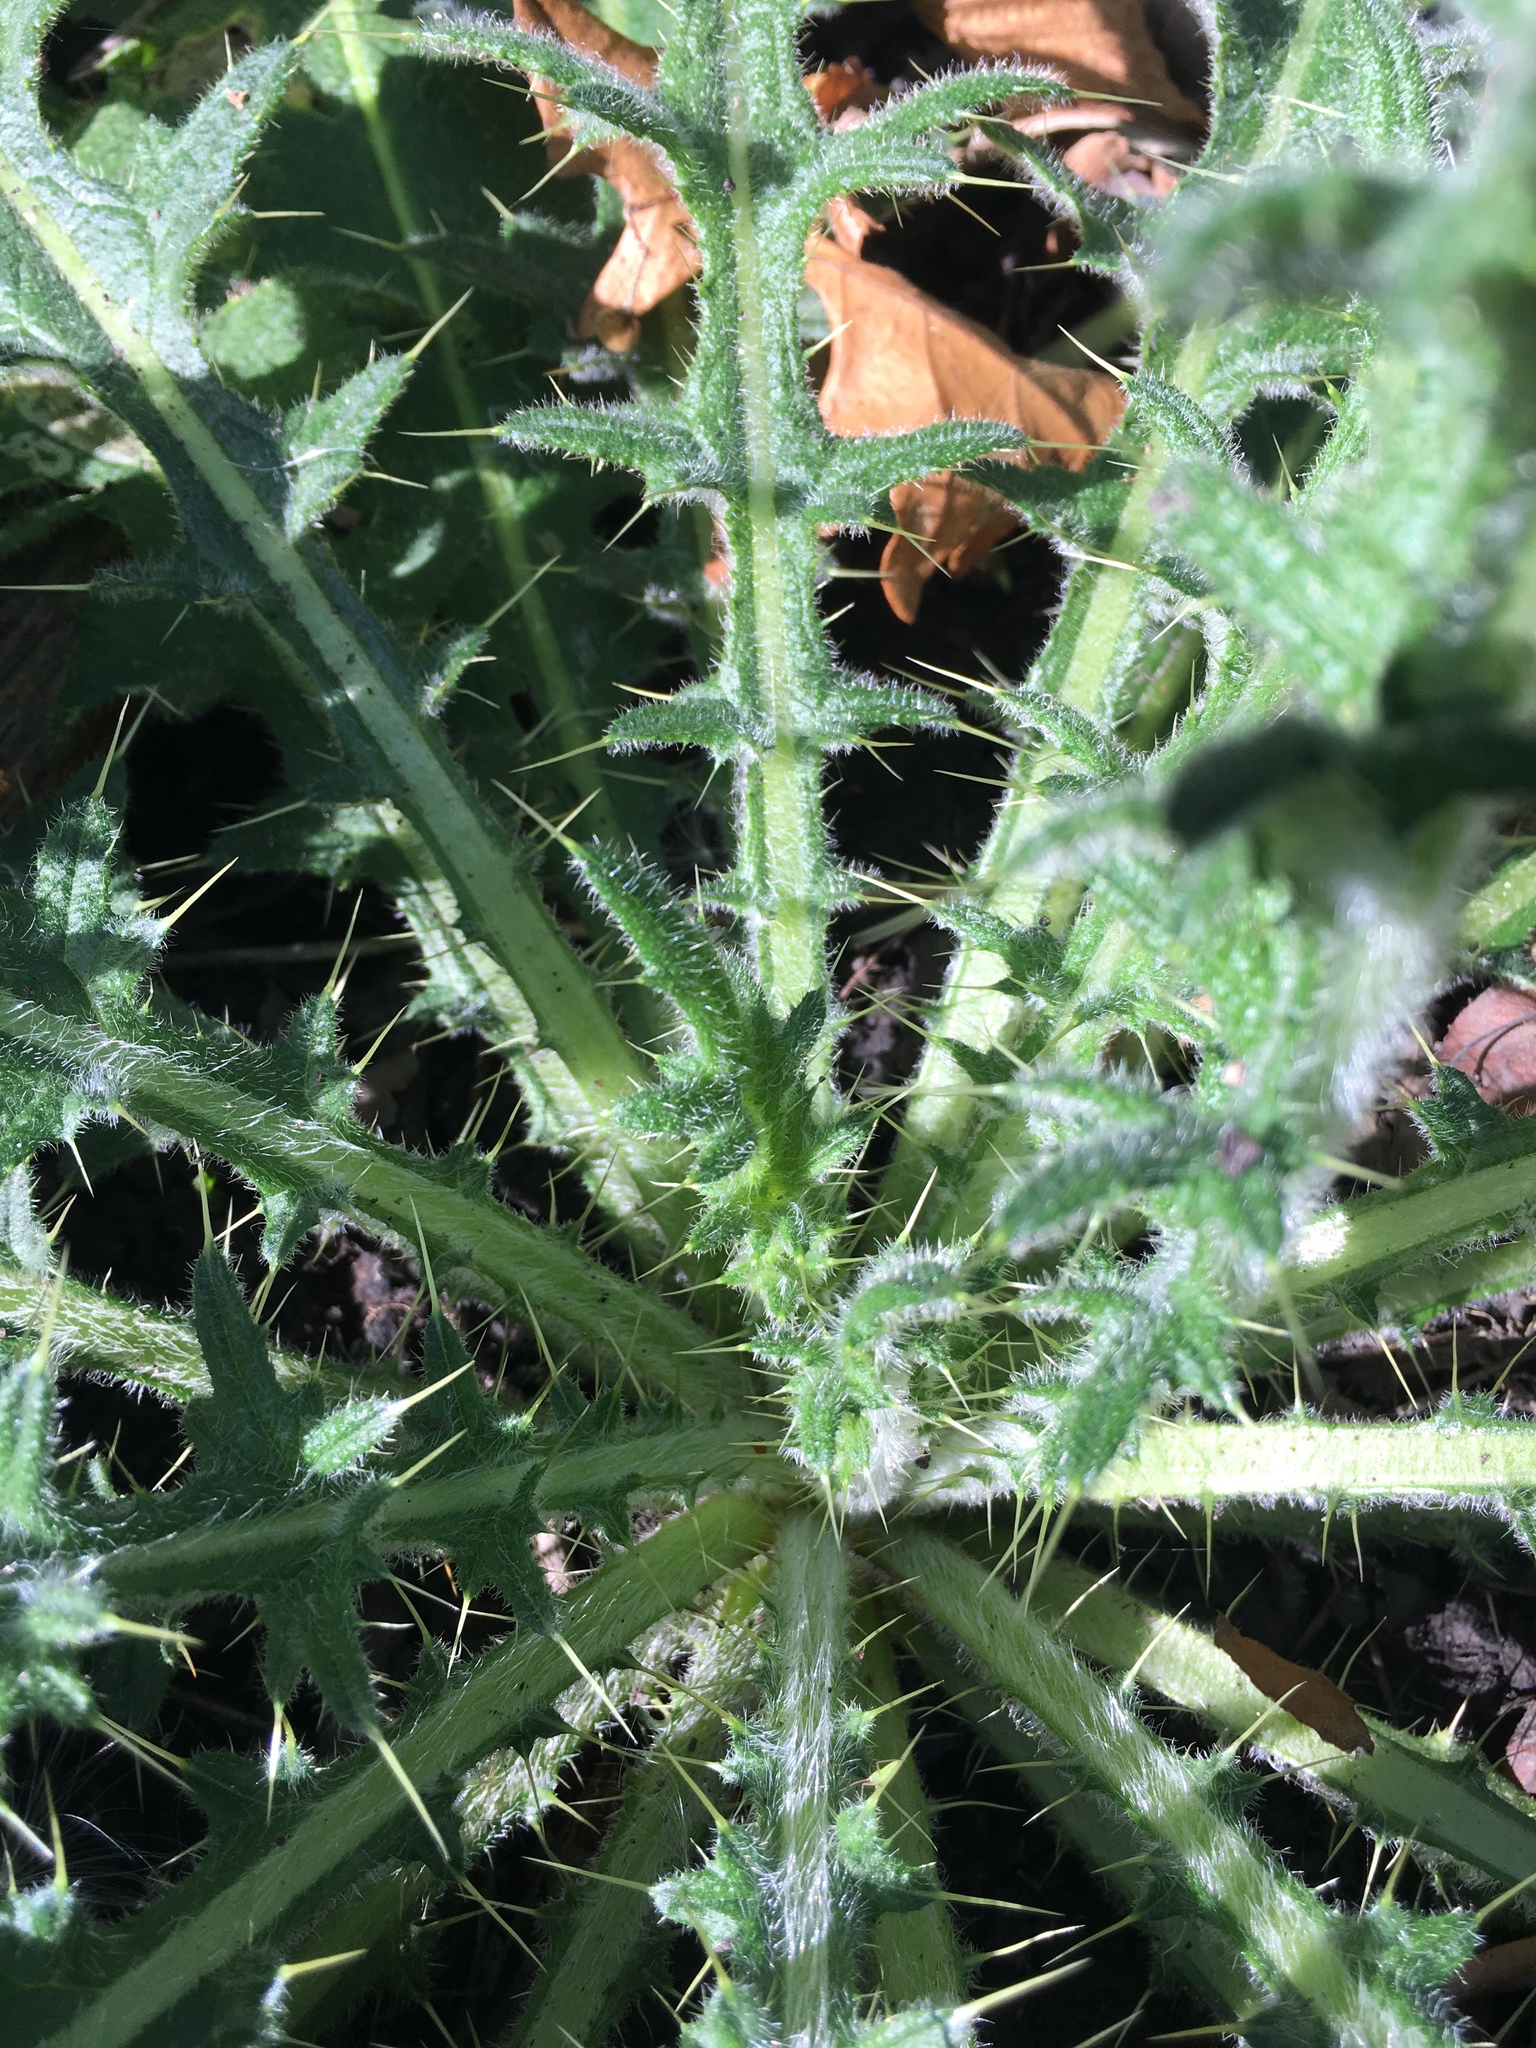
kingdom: Plantae
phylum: Tracheophyta
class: Magnoliopsida
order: Asterales
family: Asteraceae
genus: Cirsium
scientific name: Cirsium vulgare
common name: Bull thistle
